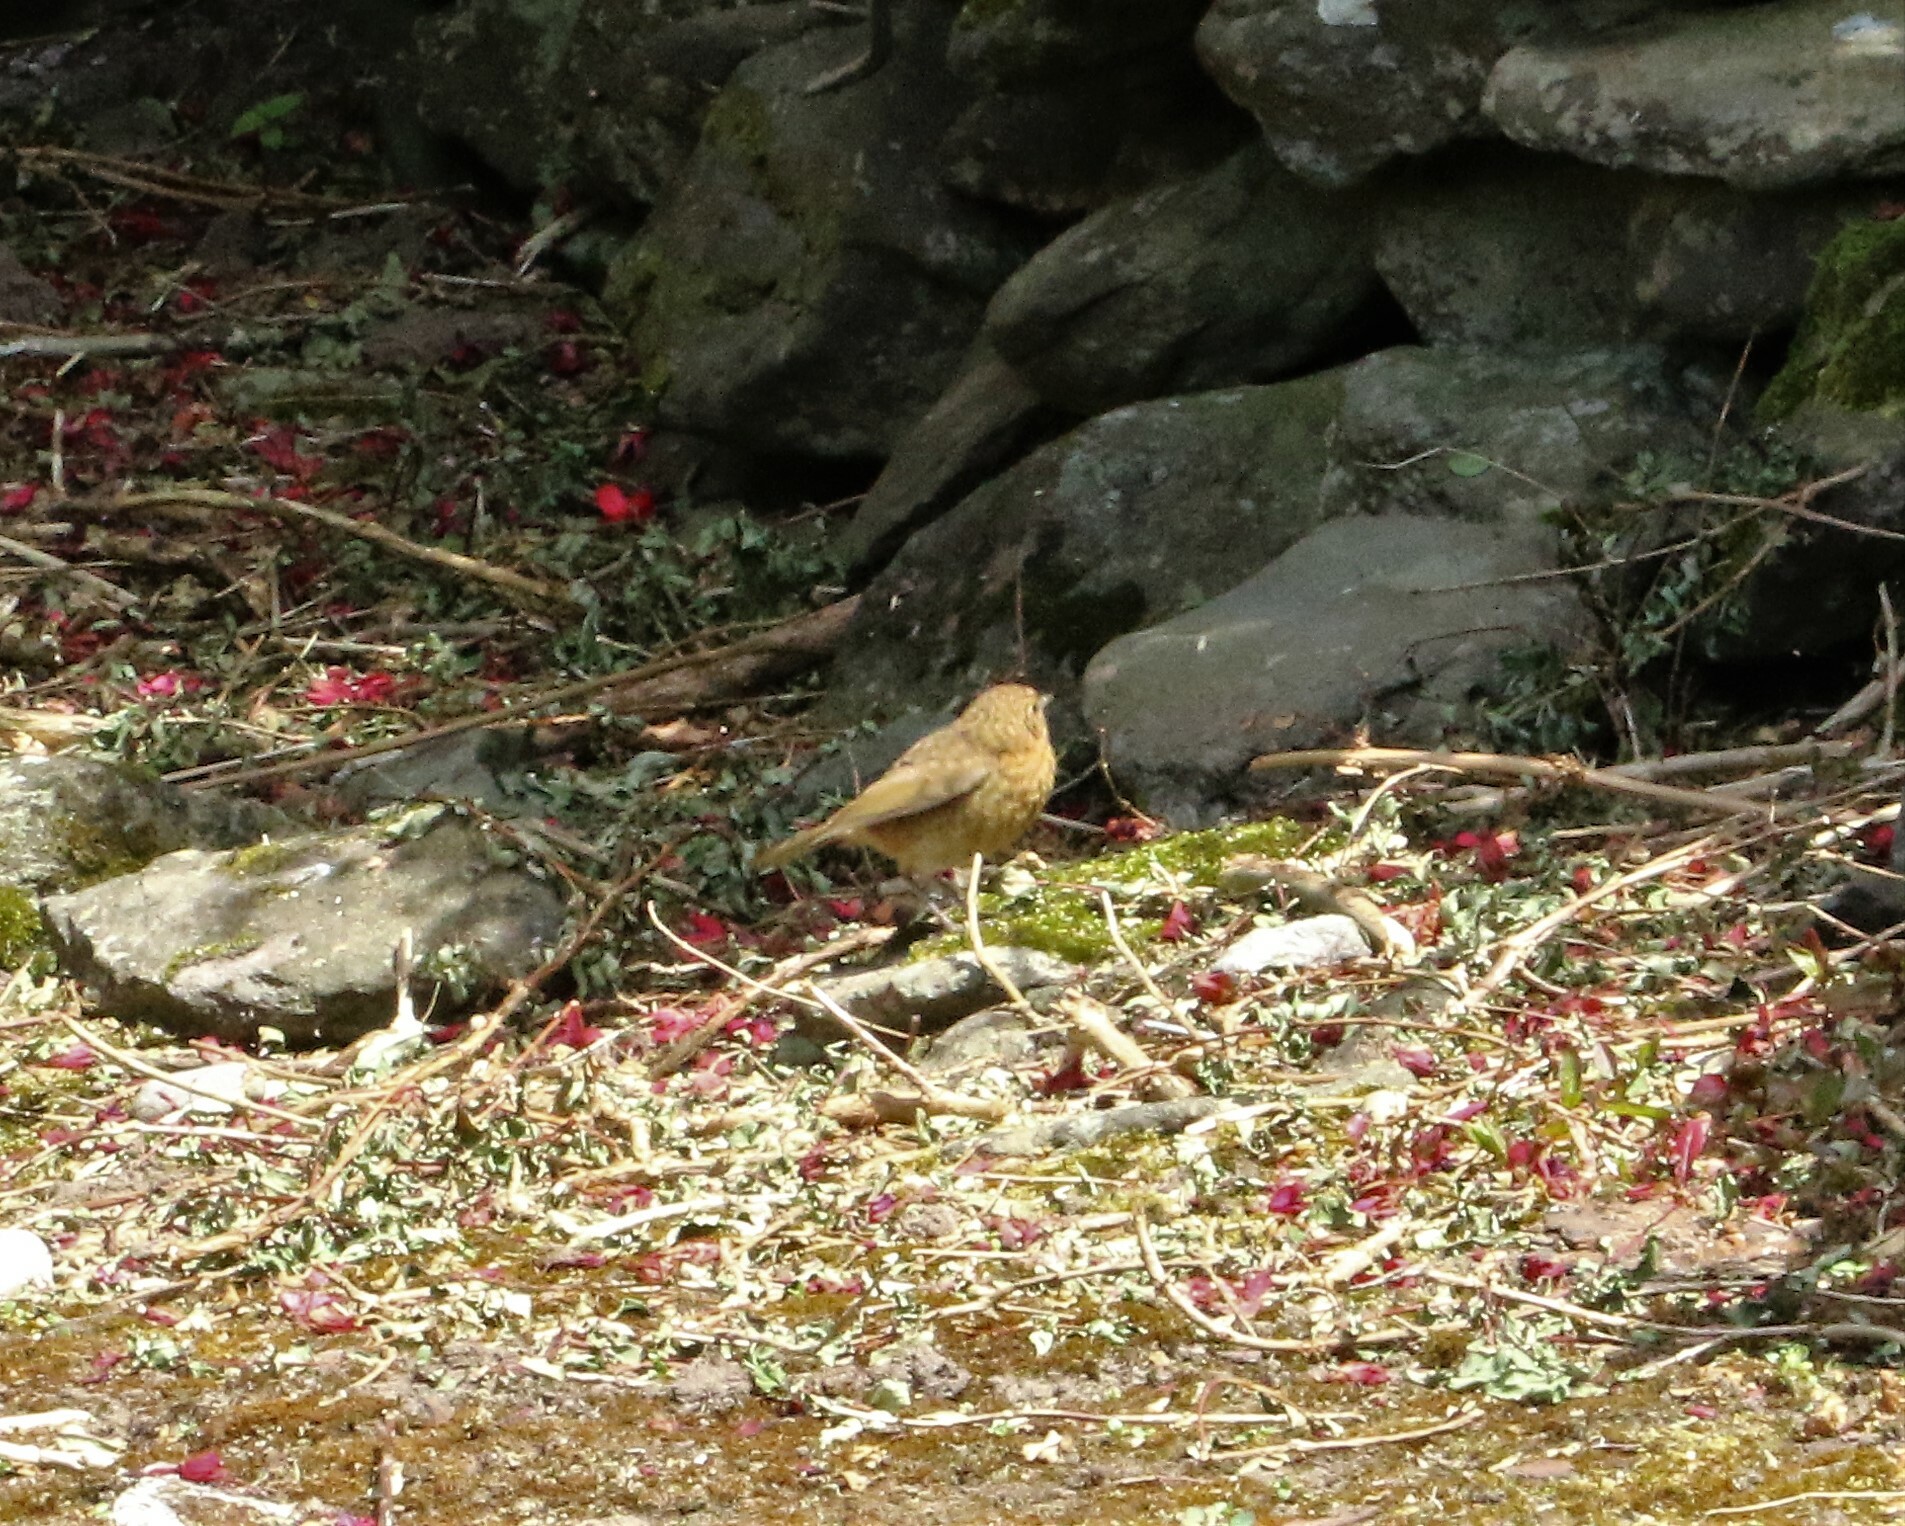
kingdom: Animalia
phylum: Chordata
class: Aves
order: Passeriformes
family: Muscicapidae
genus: Erithacus
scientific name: Erithacus rubecula
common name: European robin
